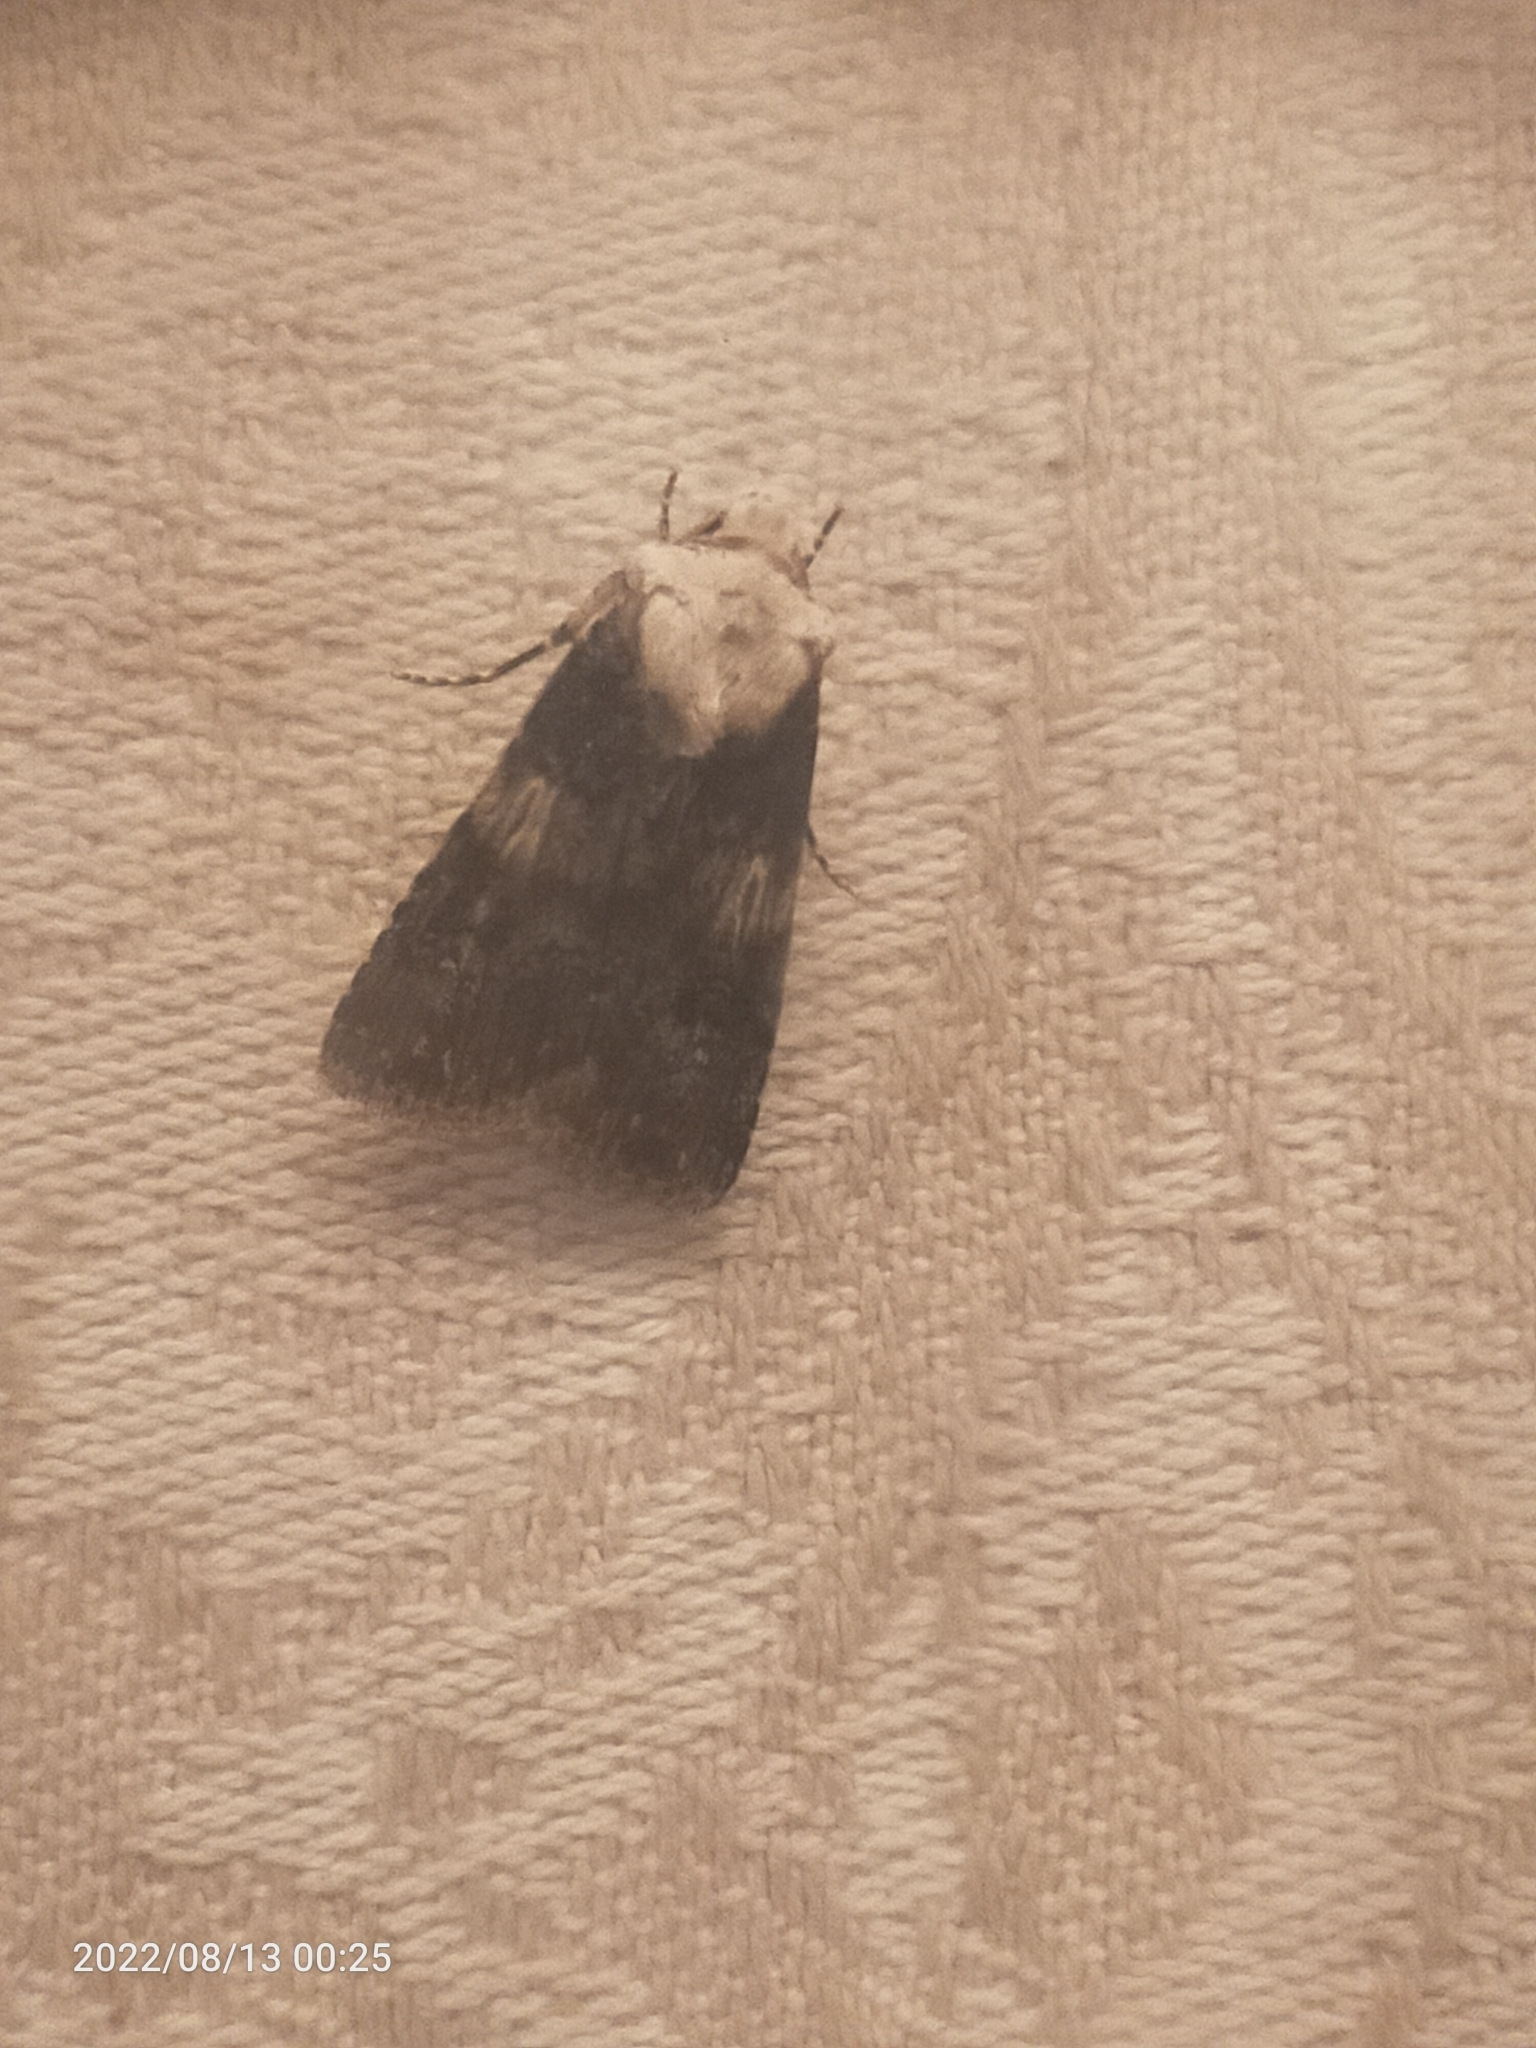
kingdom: Animalia
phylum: Arthropoda
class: Insecta
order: Lepidoptera
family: Noctuidae
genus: Agrotis
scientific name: Agrotis puta
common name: Shuttle-shaped dart
